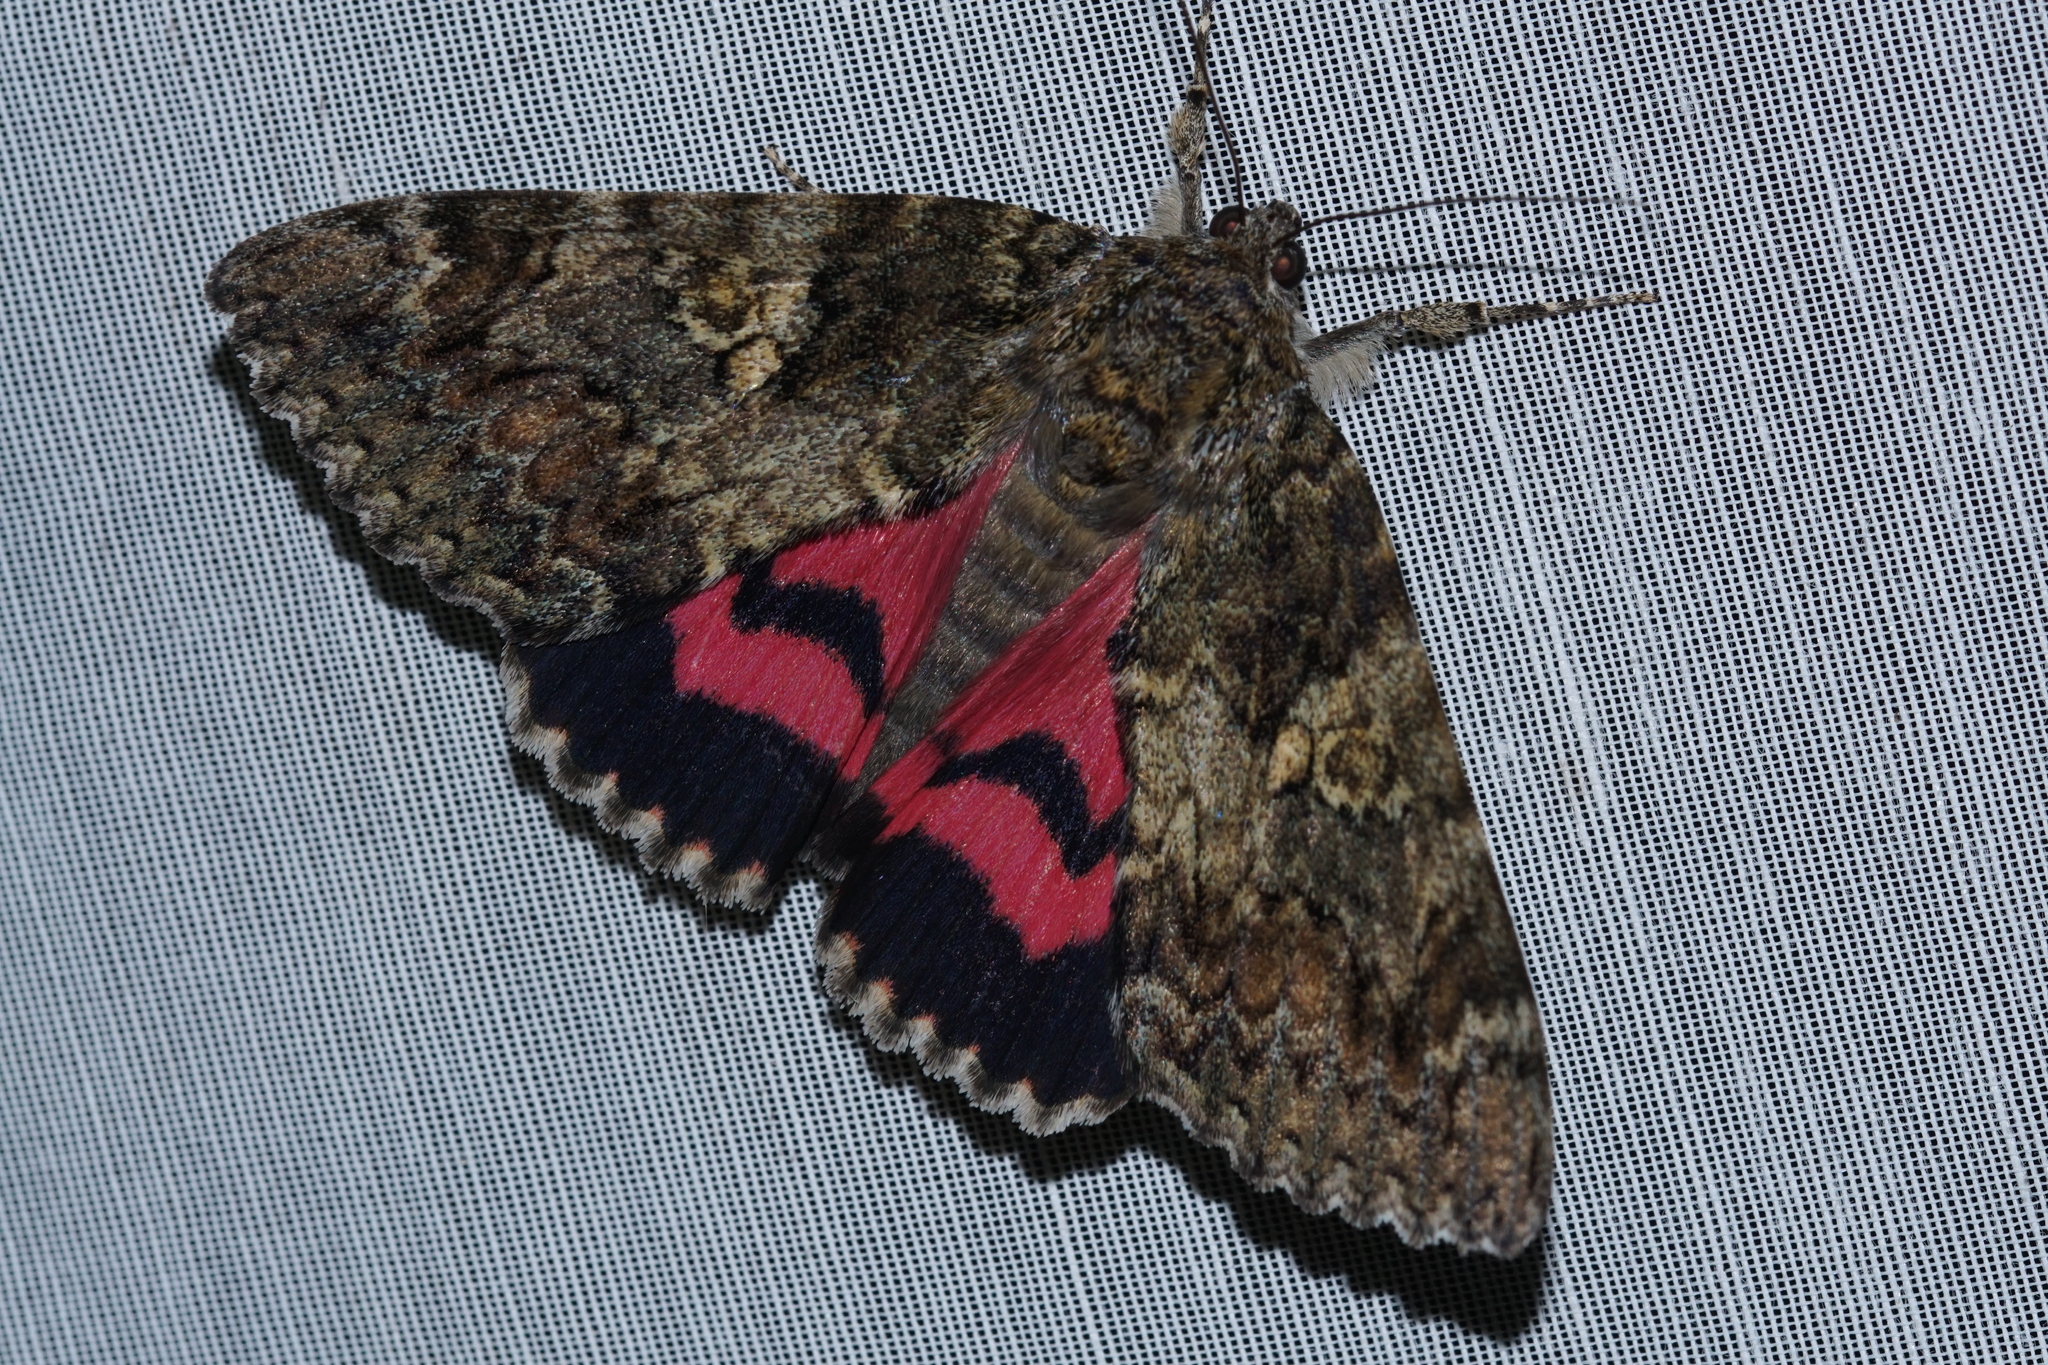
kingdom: Animalia
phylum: Arthropoda
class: Insecta
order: Lepidoptera
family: Erebidae
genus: Catocala
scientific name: Catocala sponsa
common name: Dark crimson underwing
